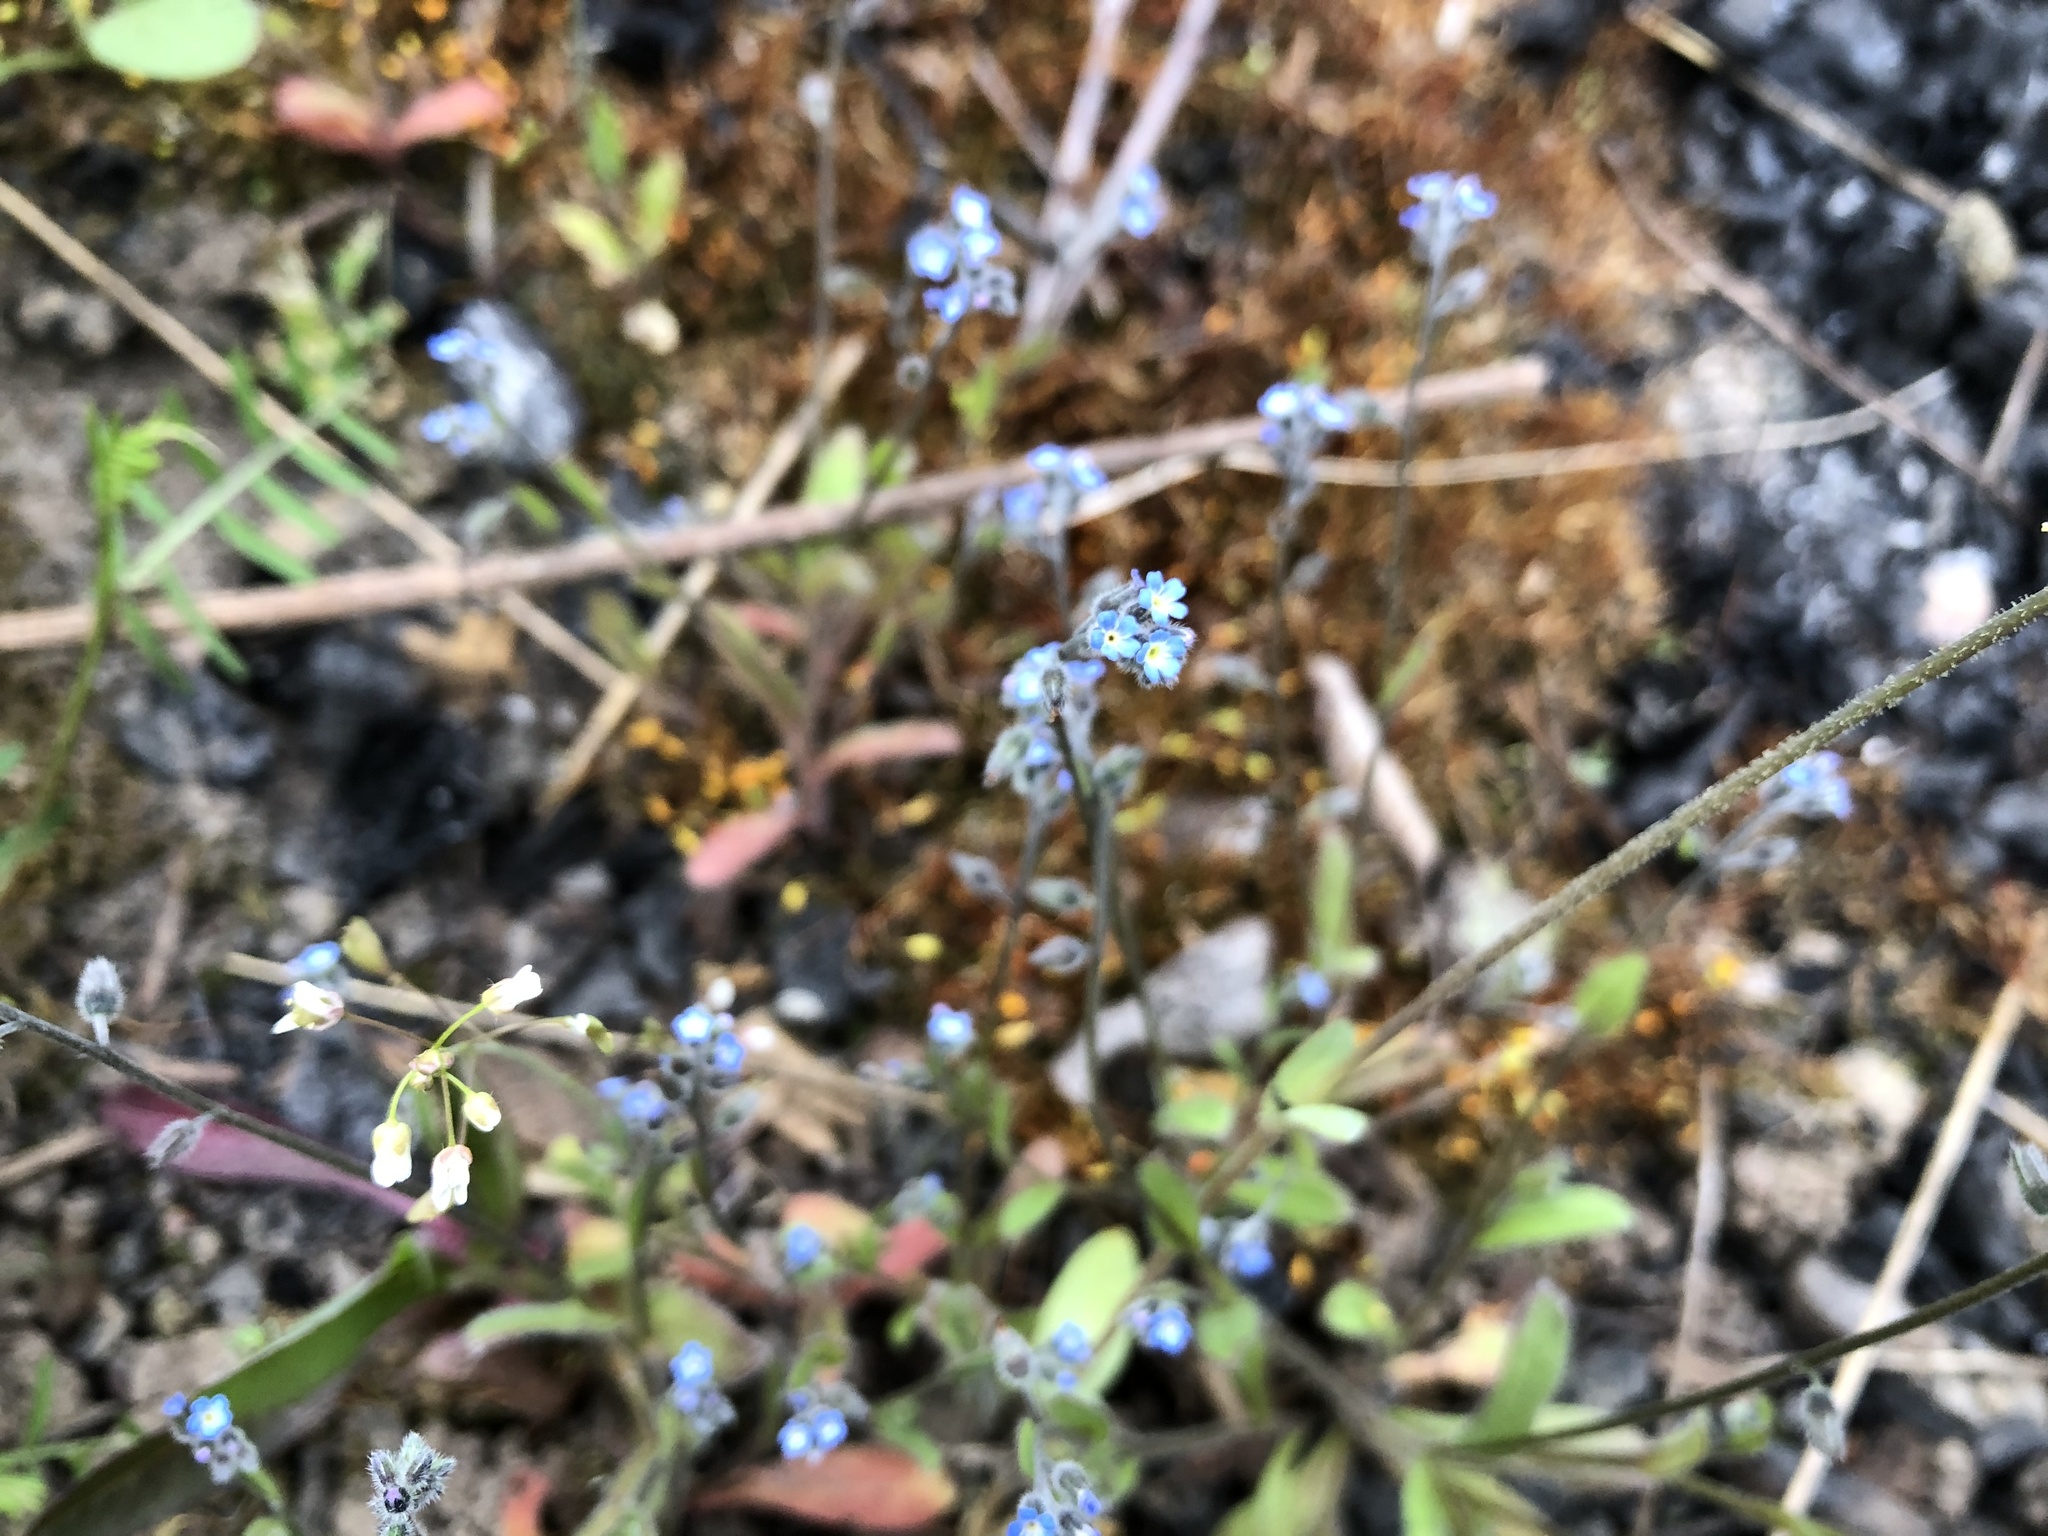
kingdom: Plantae
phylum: Tracheophyta
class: Magnoliopsida
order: Boraginales
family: Boraginaceae
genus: Myosotis
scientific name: Myosotis ramosissima
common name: Early forget-me-not
